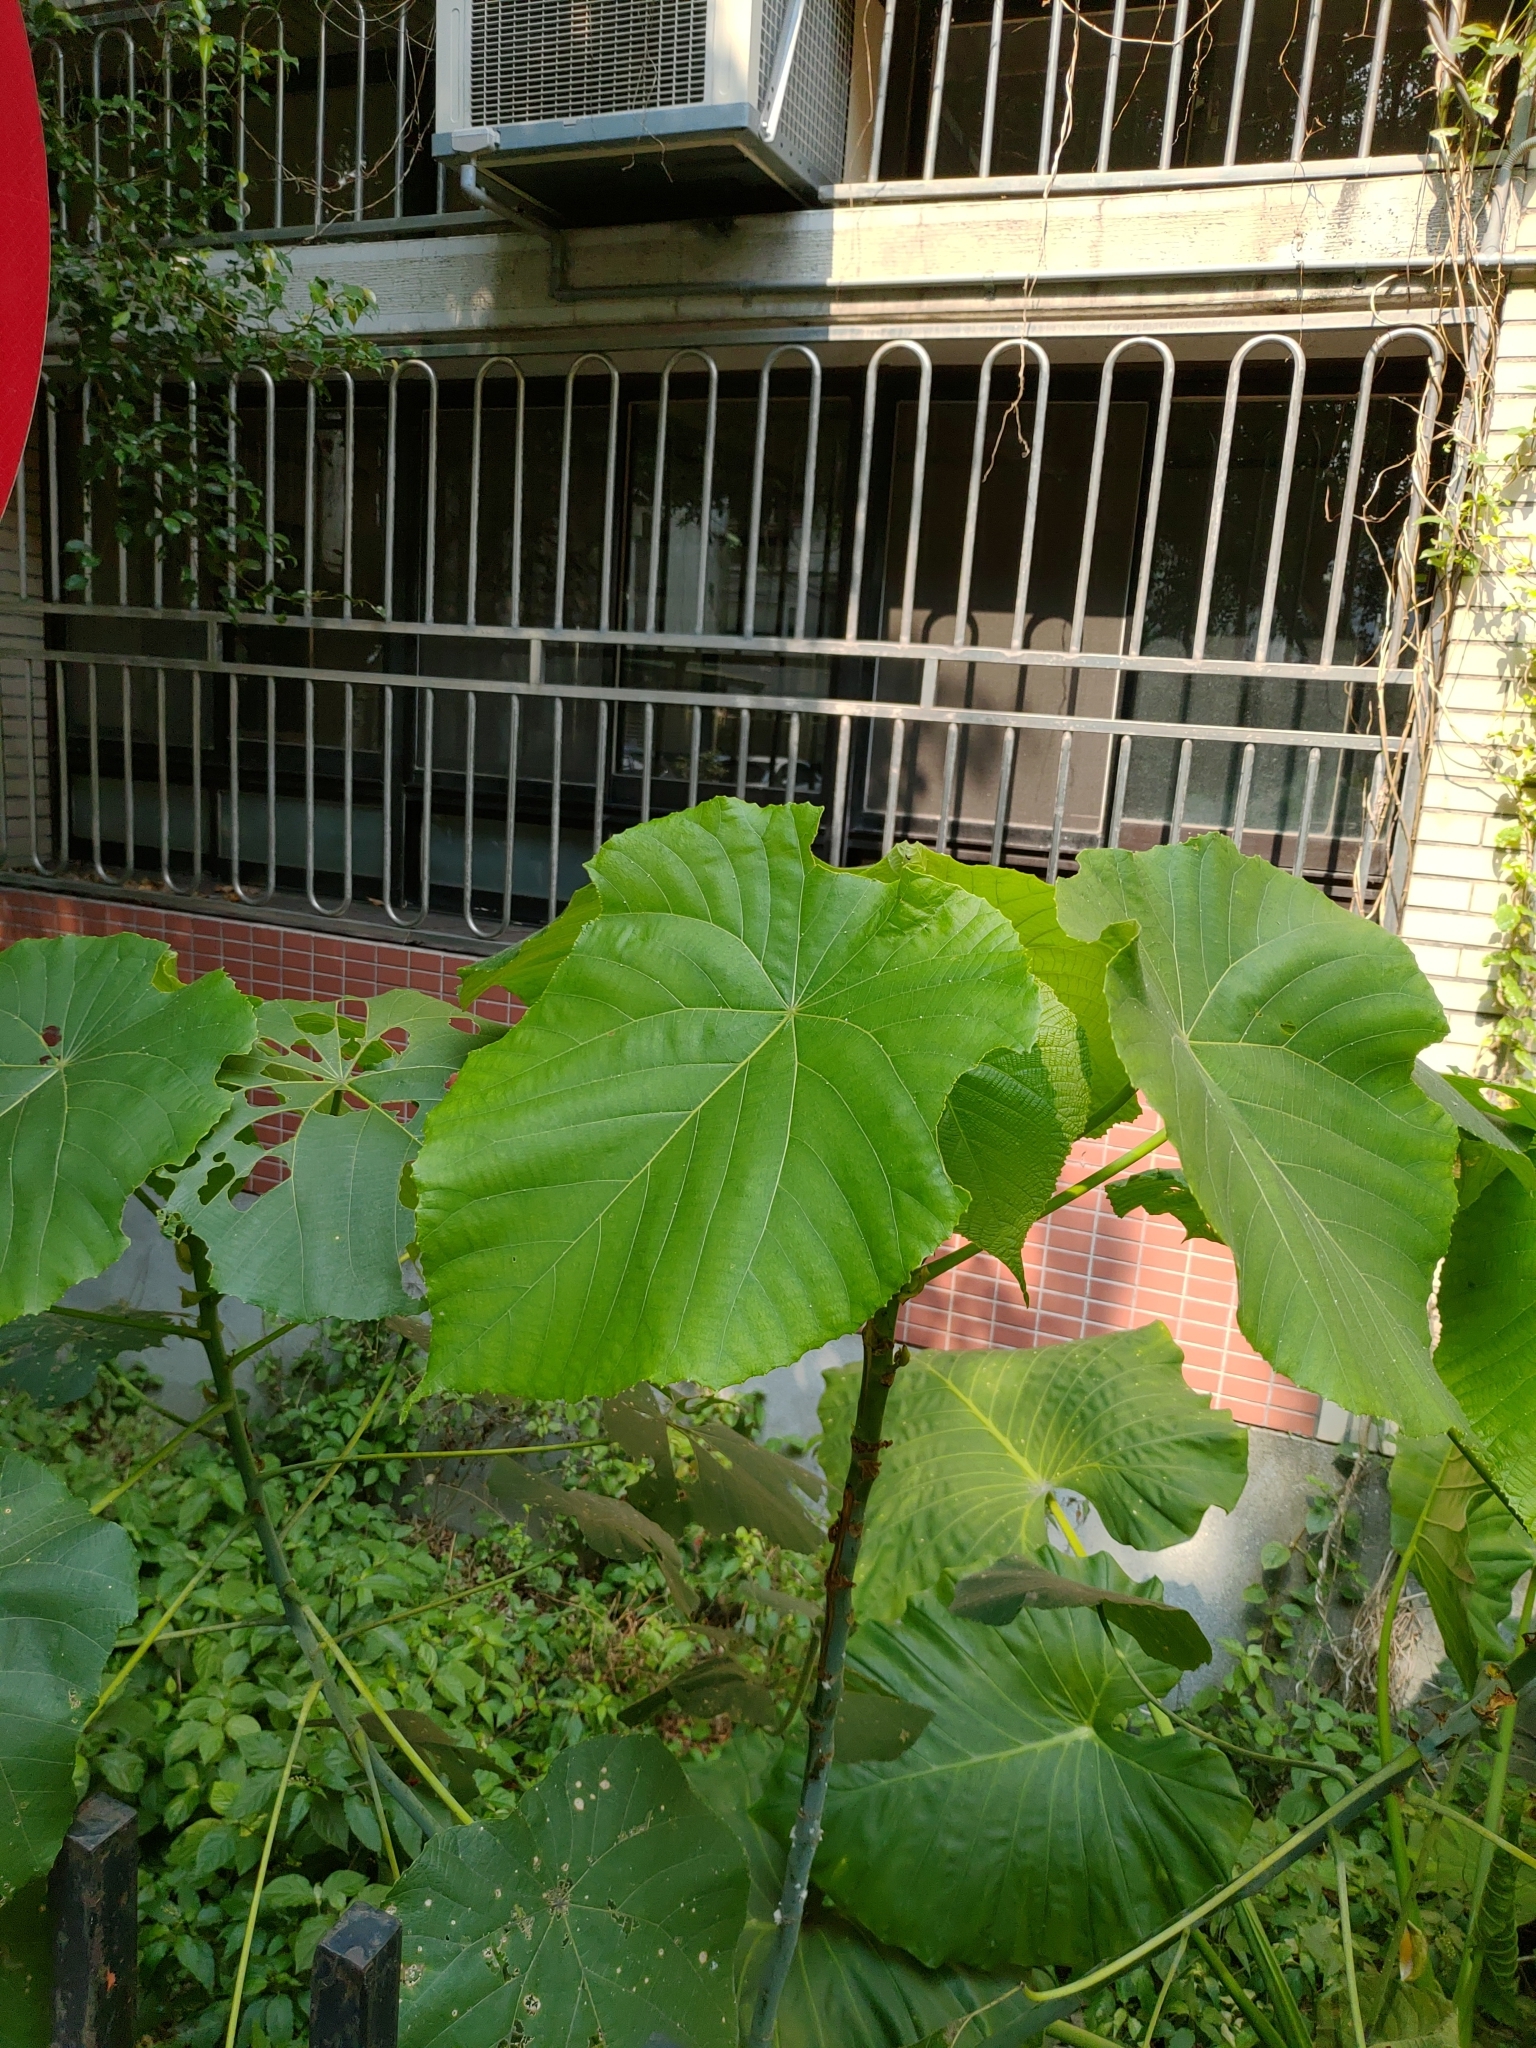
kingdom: Plantae
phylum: Tracheophyta
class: Magnoliopsida
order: Malpighiales
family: Euphorbiaceae
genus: Macaranga
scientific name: Macaranga tanarius
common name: Parasol leaf tree
